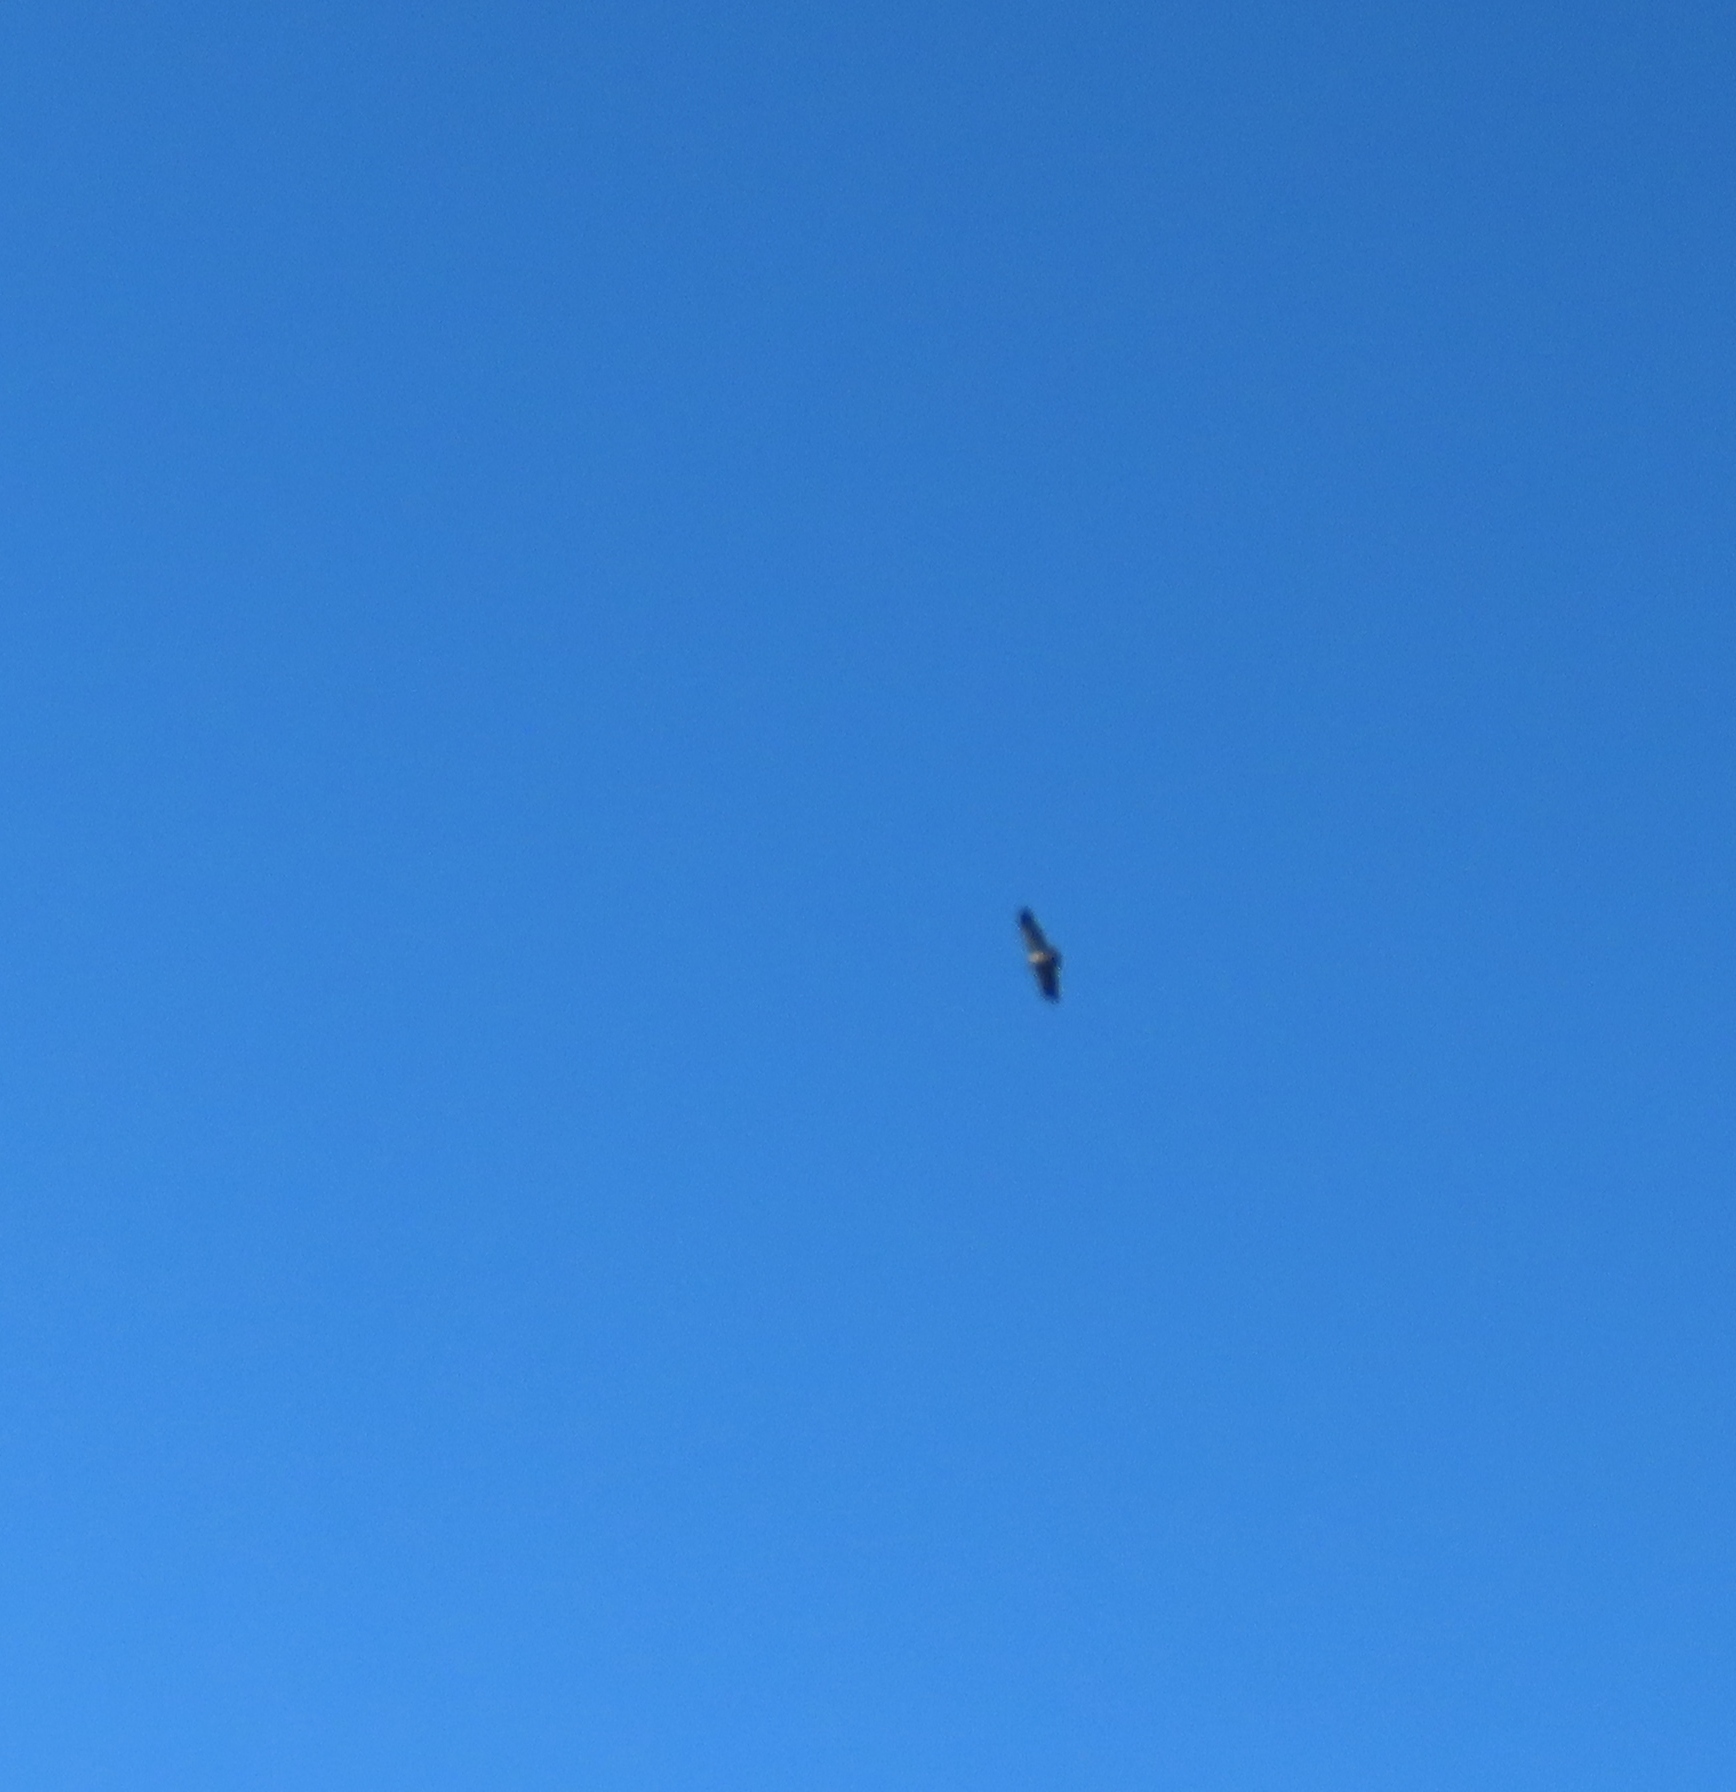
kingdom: Animalia
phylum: Chordata
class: Aves
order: Accipitriformes
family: Accipitridae
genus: Polemaetus
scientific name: Polemaetus bellicosus
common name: Martial eagle
